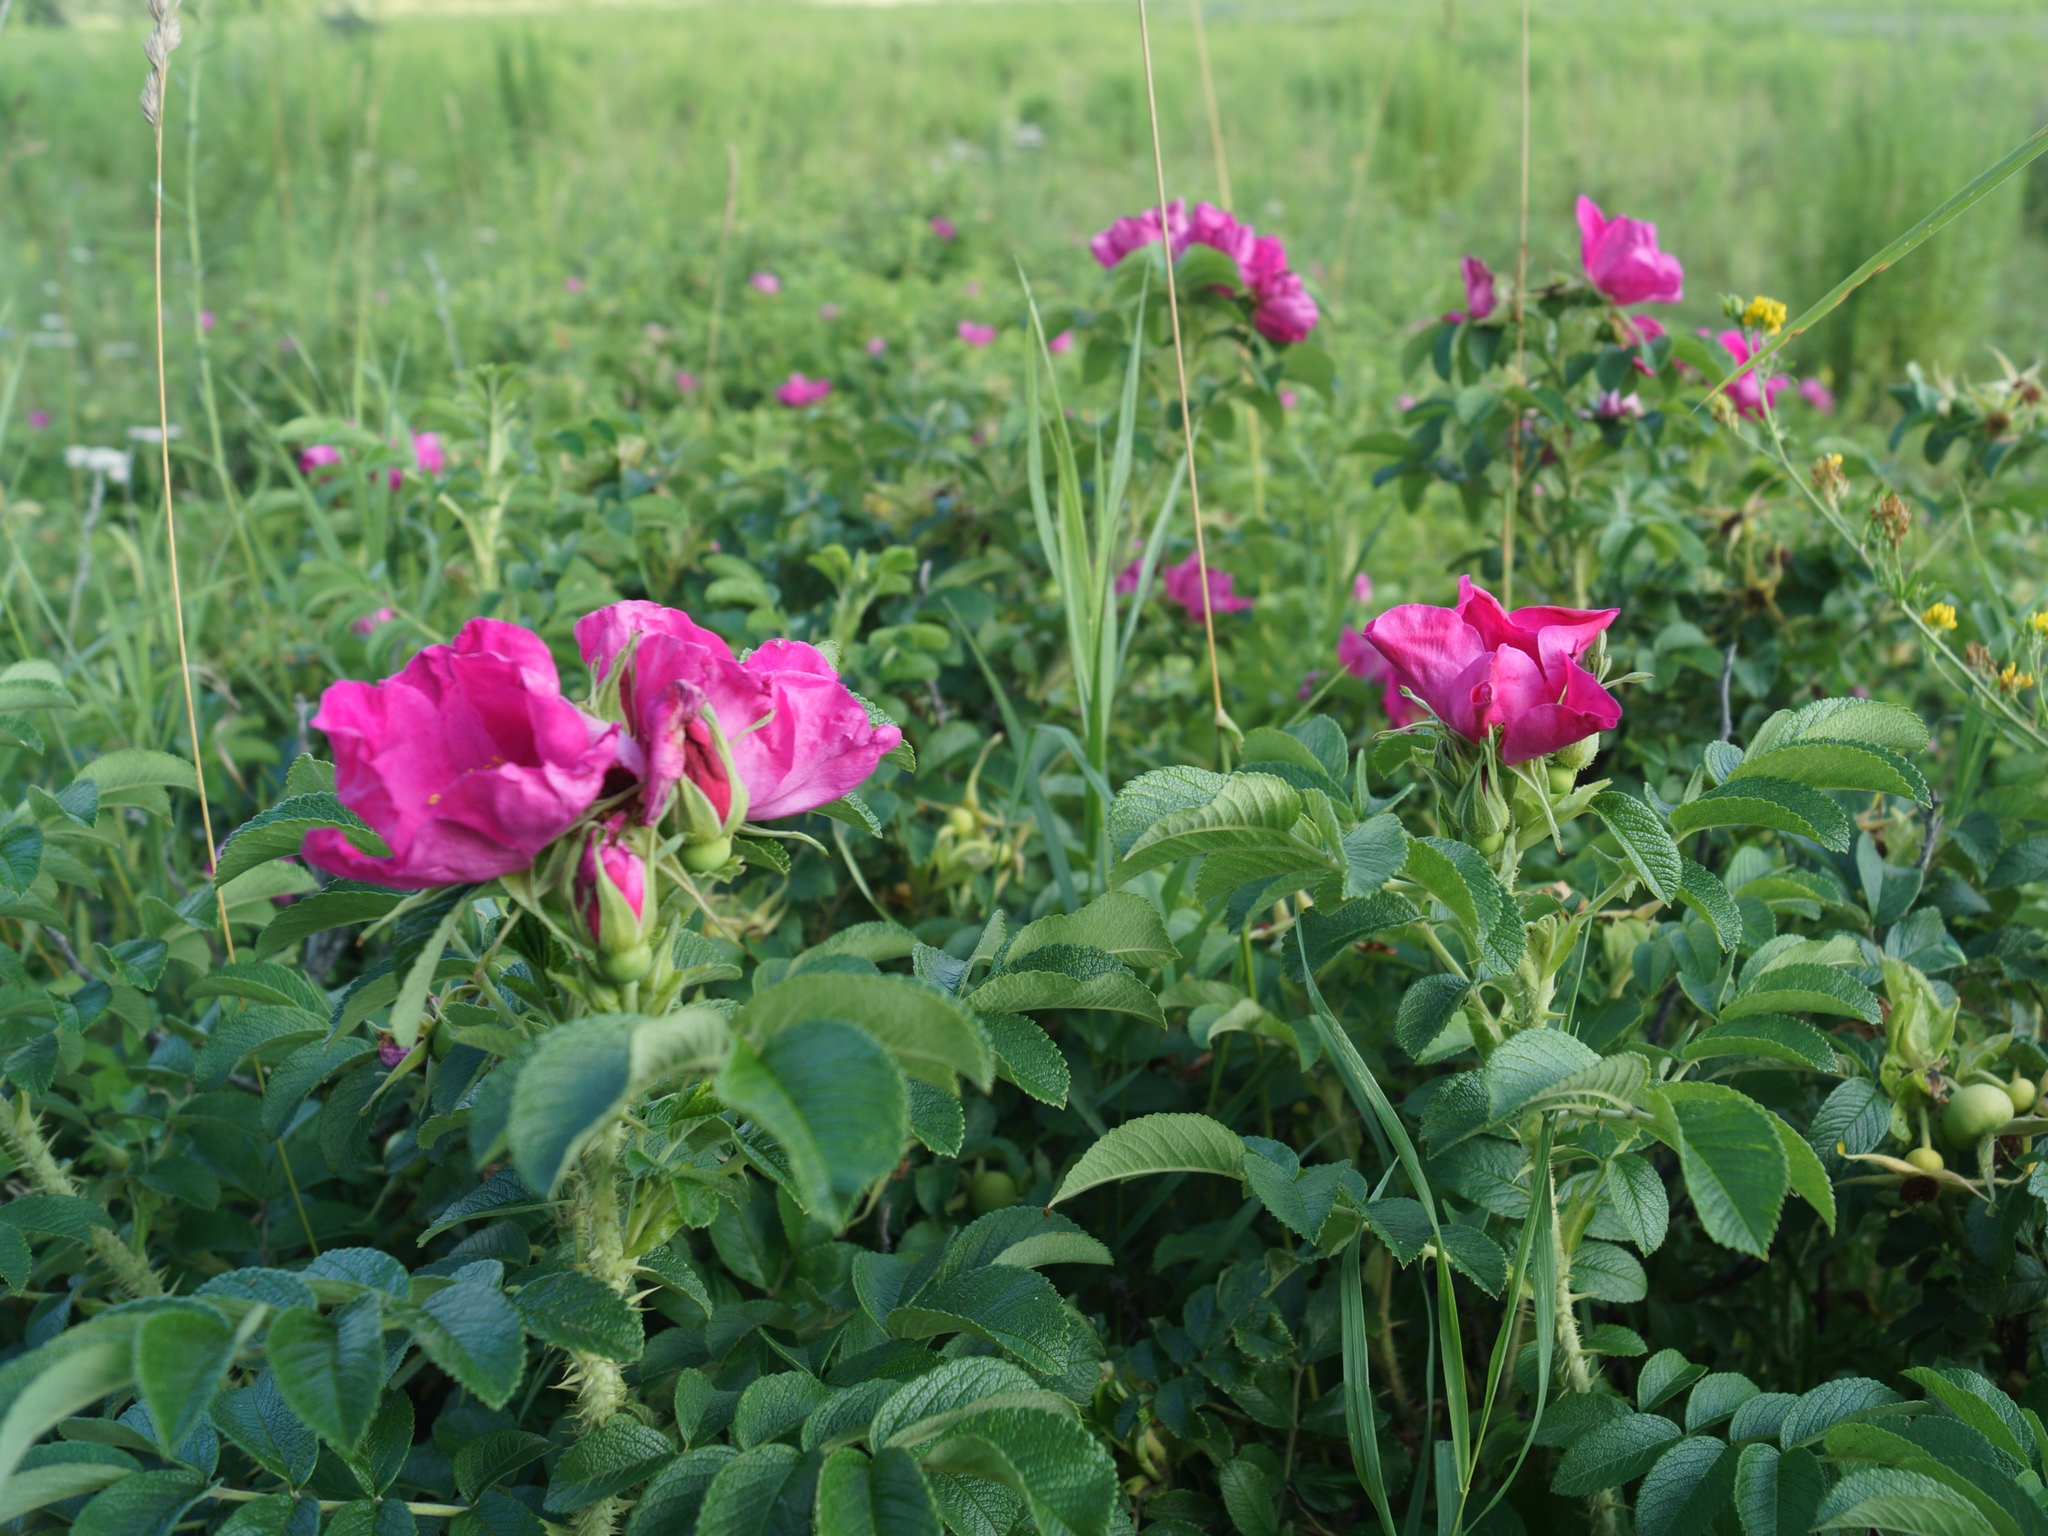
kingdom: Plantae
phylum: Tracheophyta
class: Magnoliopsida
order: Rosales
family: Rosaceae
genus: Rosa
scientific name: Rosa rugosa
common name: Japanese rose
